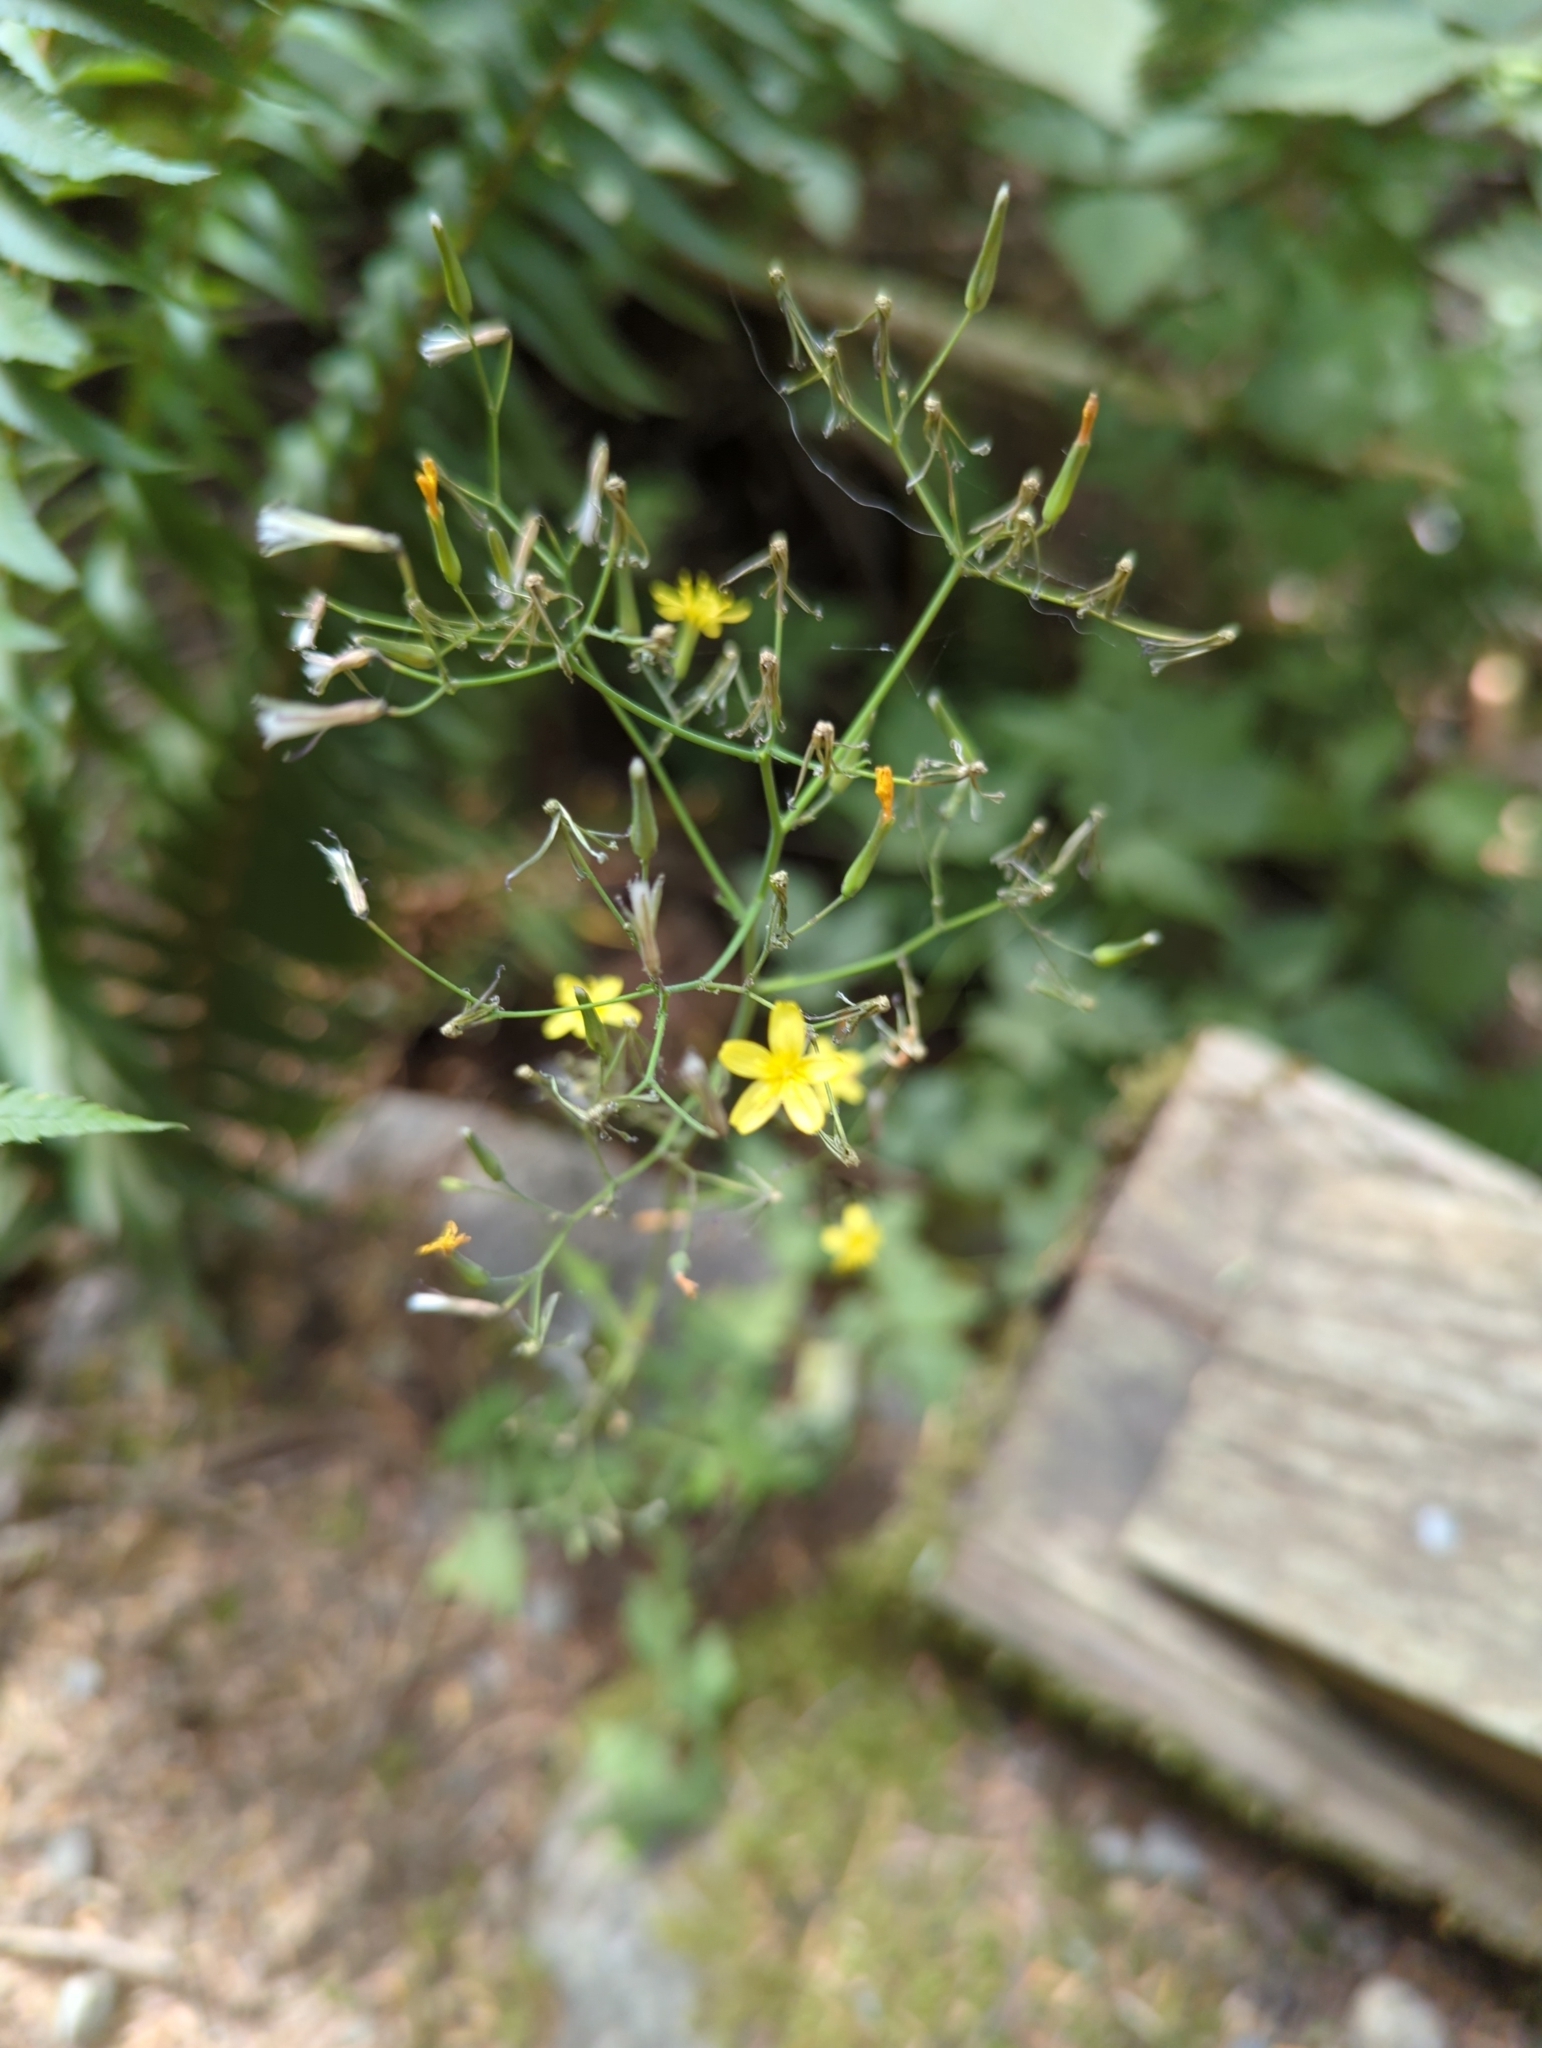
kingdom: Plantae
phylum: Tracheophyta
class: Magnoliopsida
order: Asterales
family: Asteraceae
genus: Mycelis
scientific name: Mycelis muralis
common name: Wall lettuce
